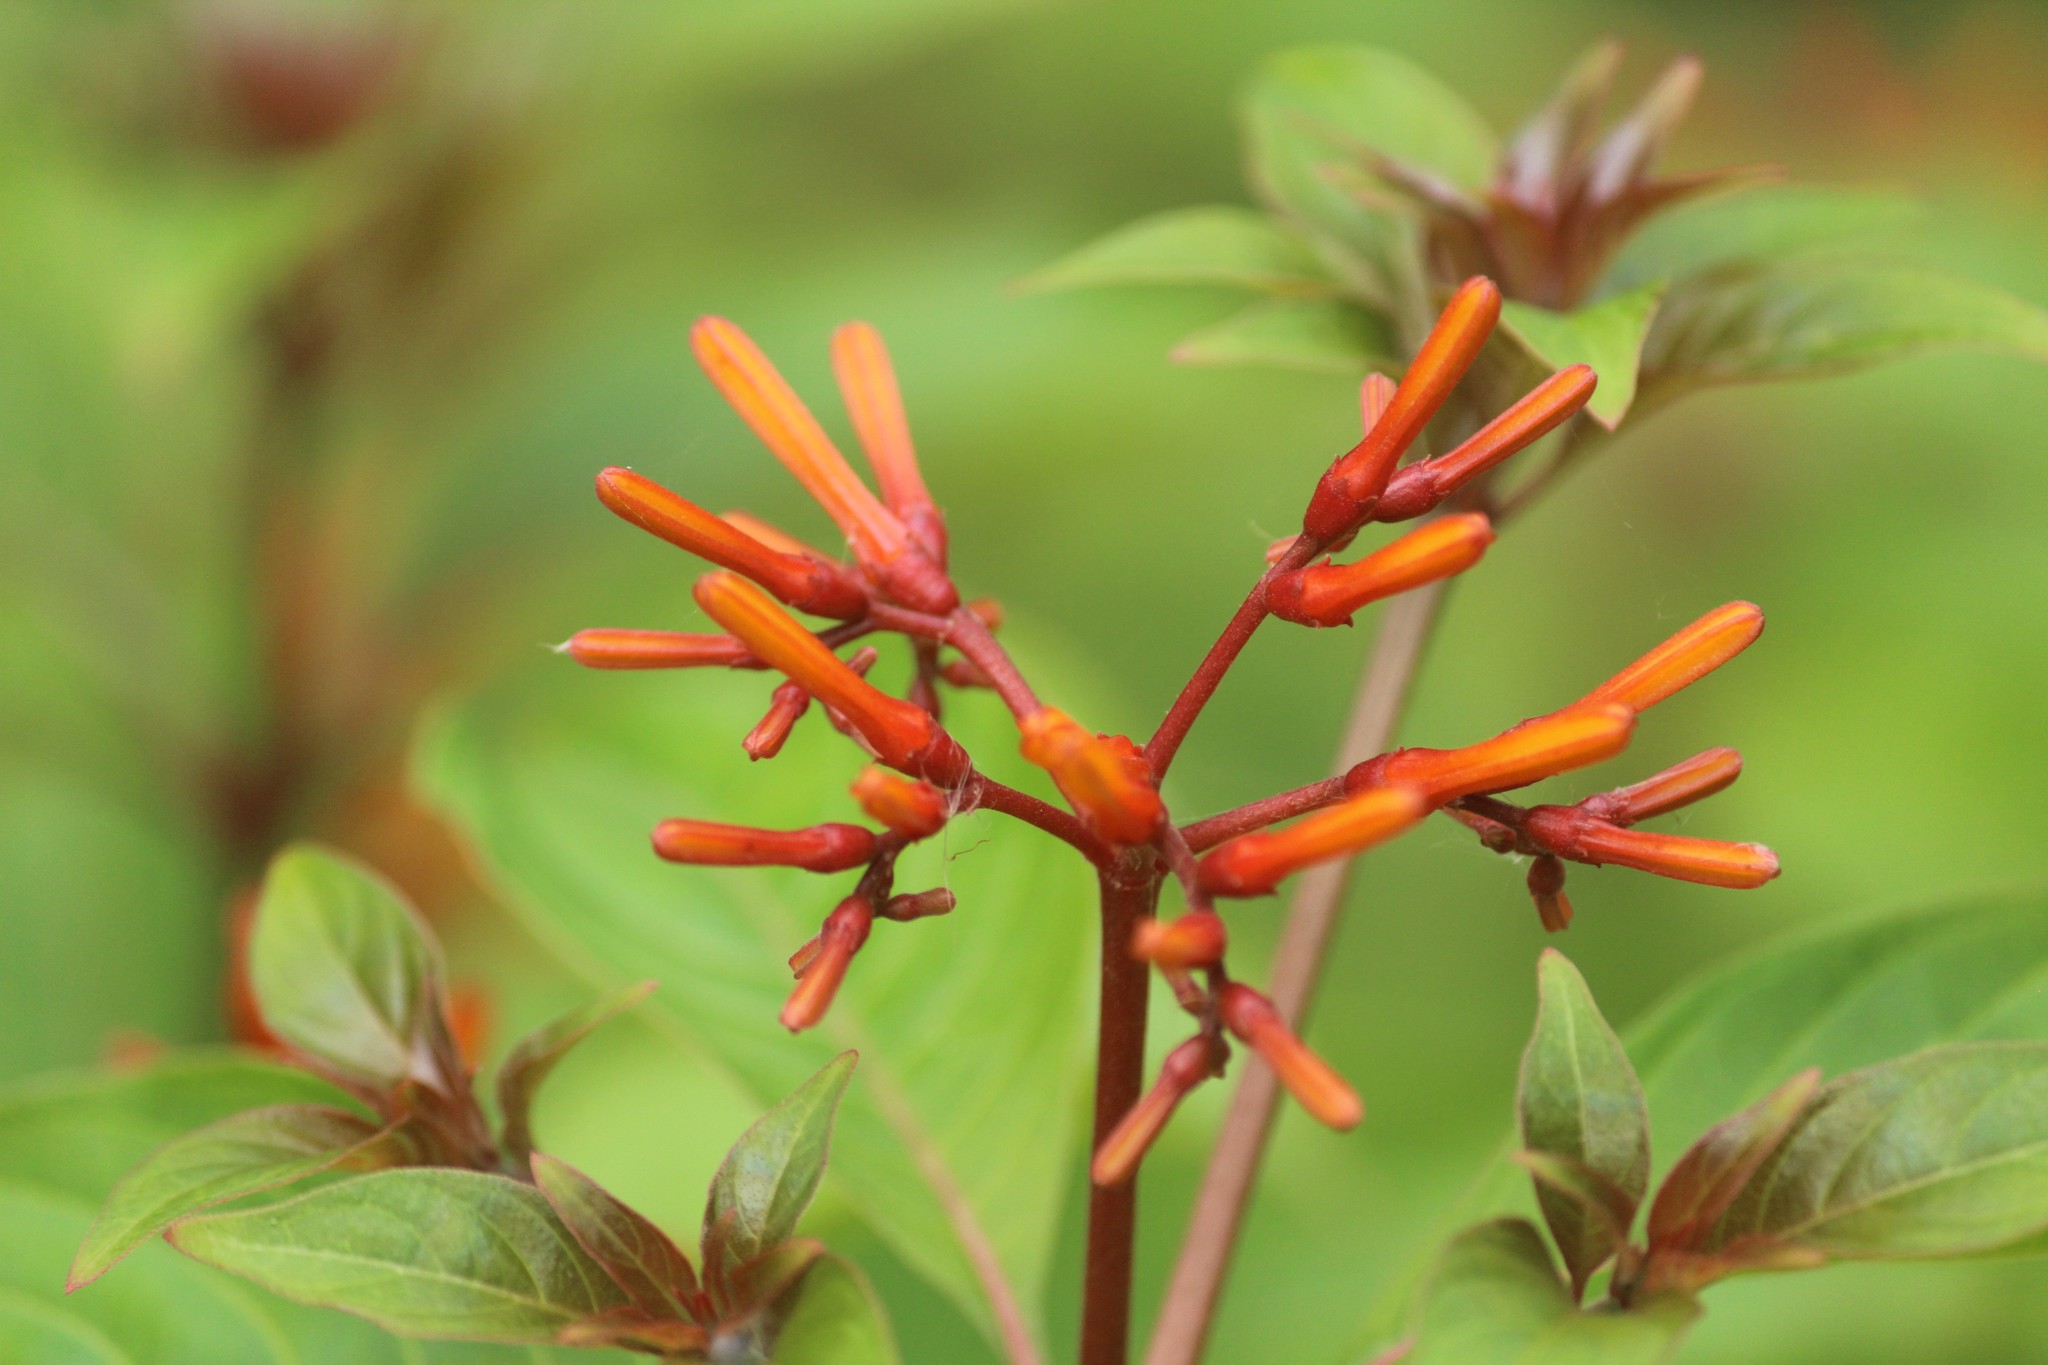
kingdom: Plantae
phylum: Tracheophyta
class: Magnoliopsida
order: Gentianales
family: Rubiaceae
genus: Hamelia
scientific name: Hamelia patens
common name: Redhead
